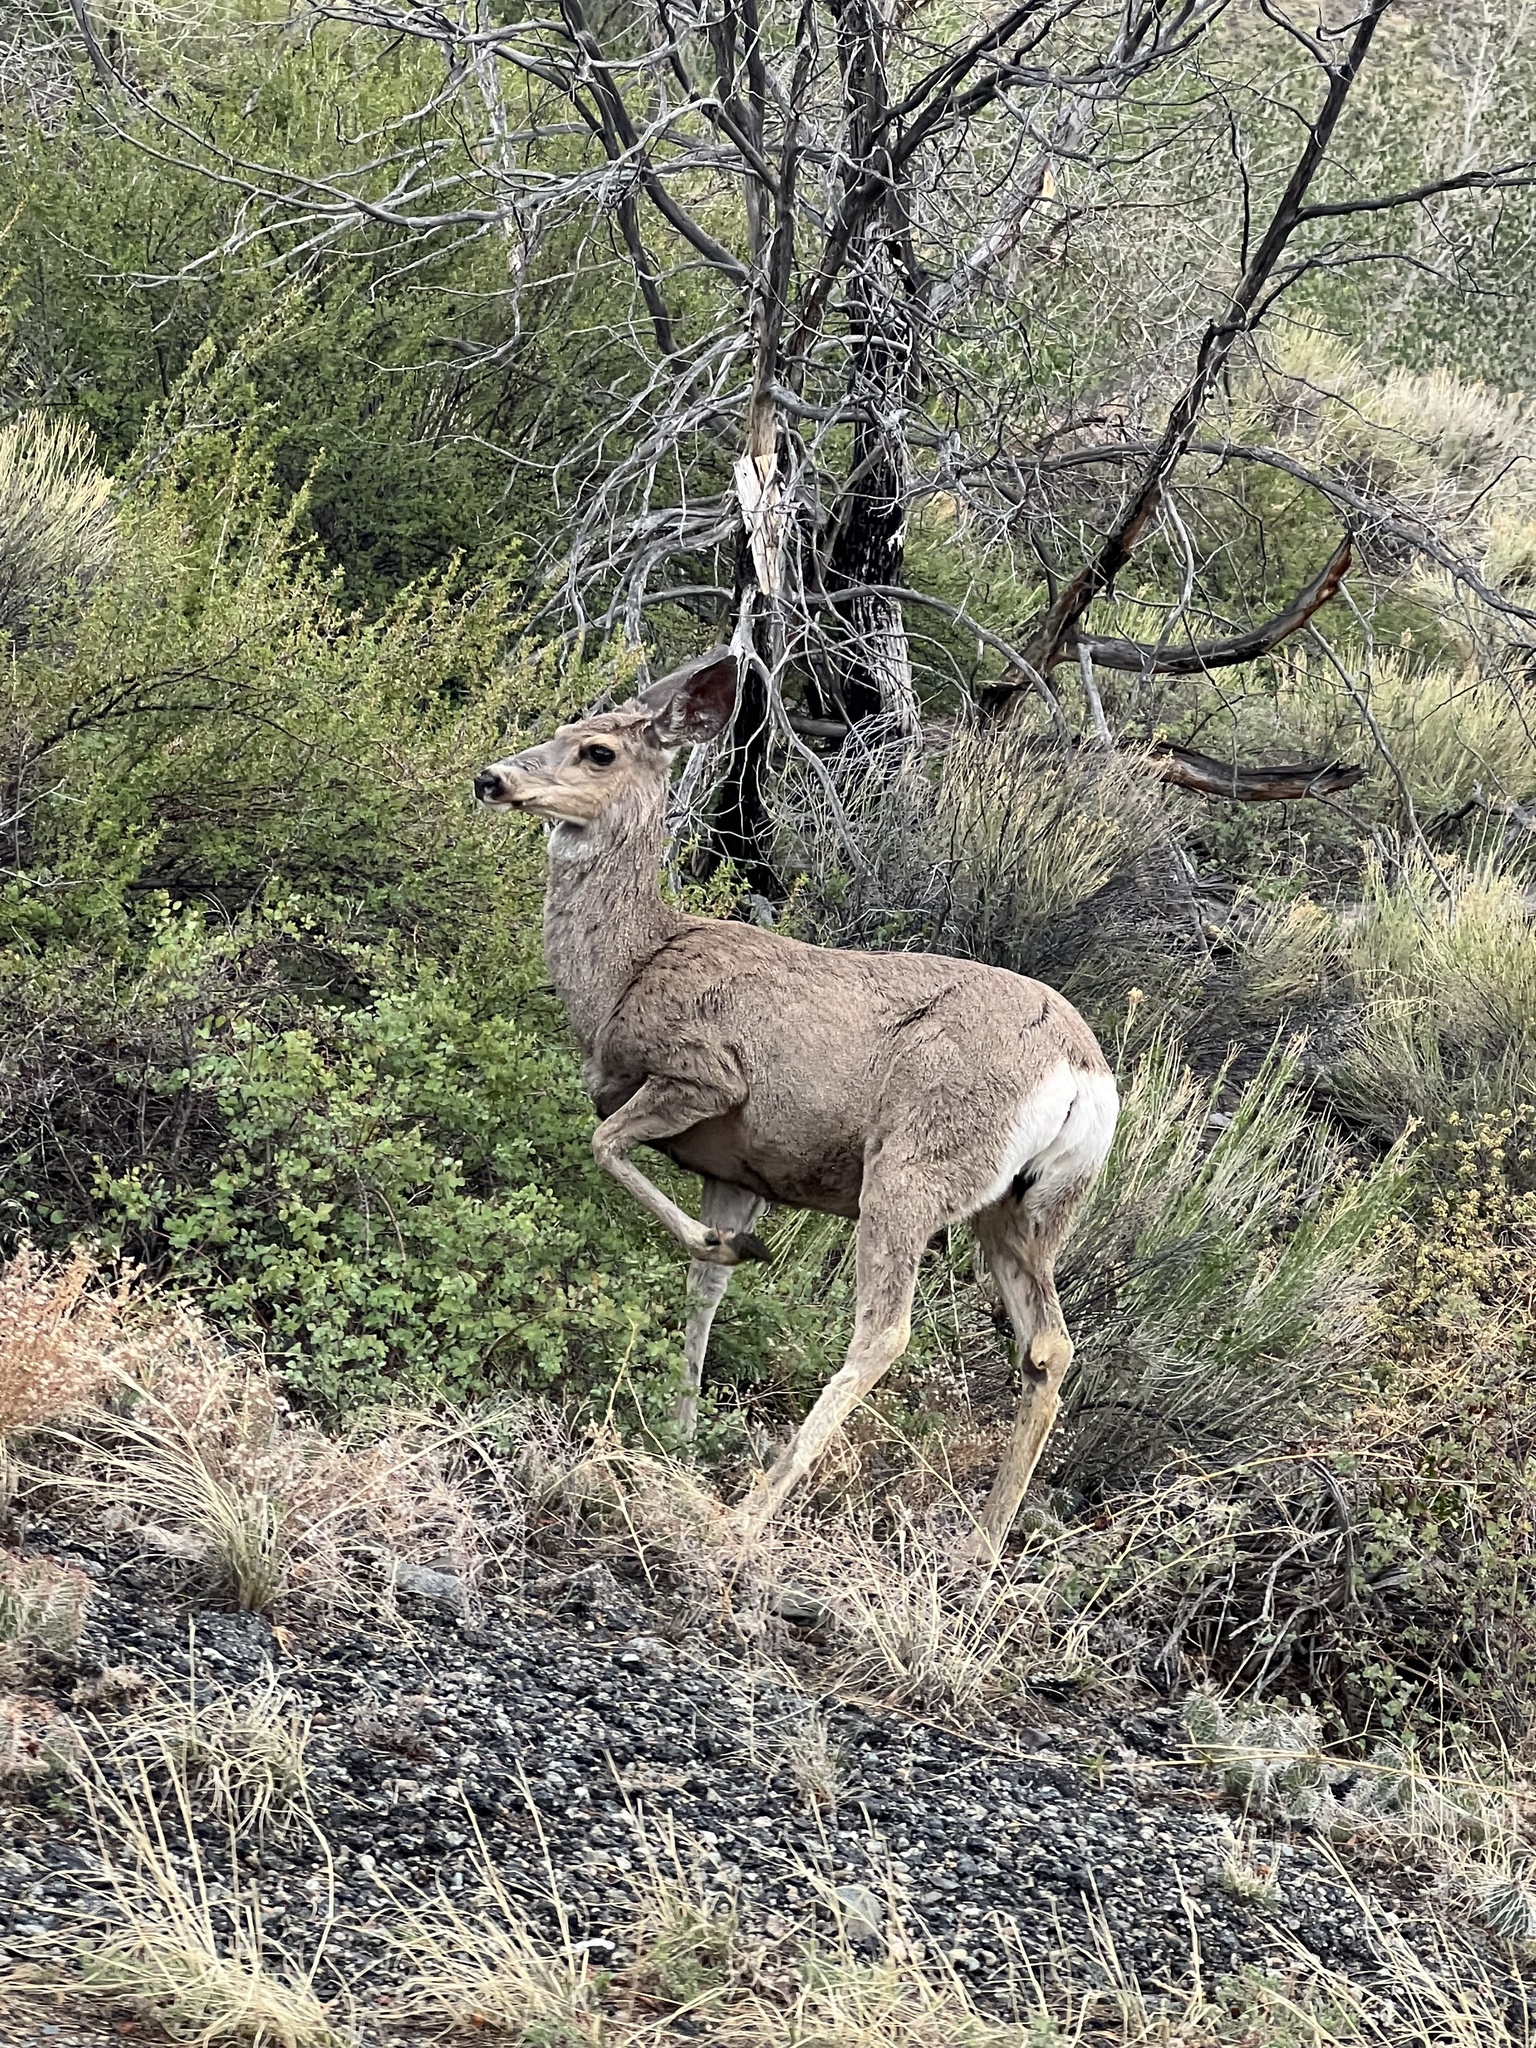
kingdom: Animalia
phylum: Chordata
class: Mammalia
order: Artiodactyla
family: Cervidae
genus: Odocoileus
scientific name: Odocoileus hemionus
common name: Mule deer
